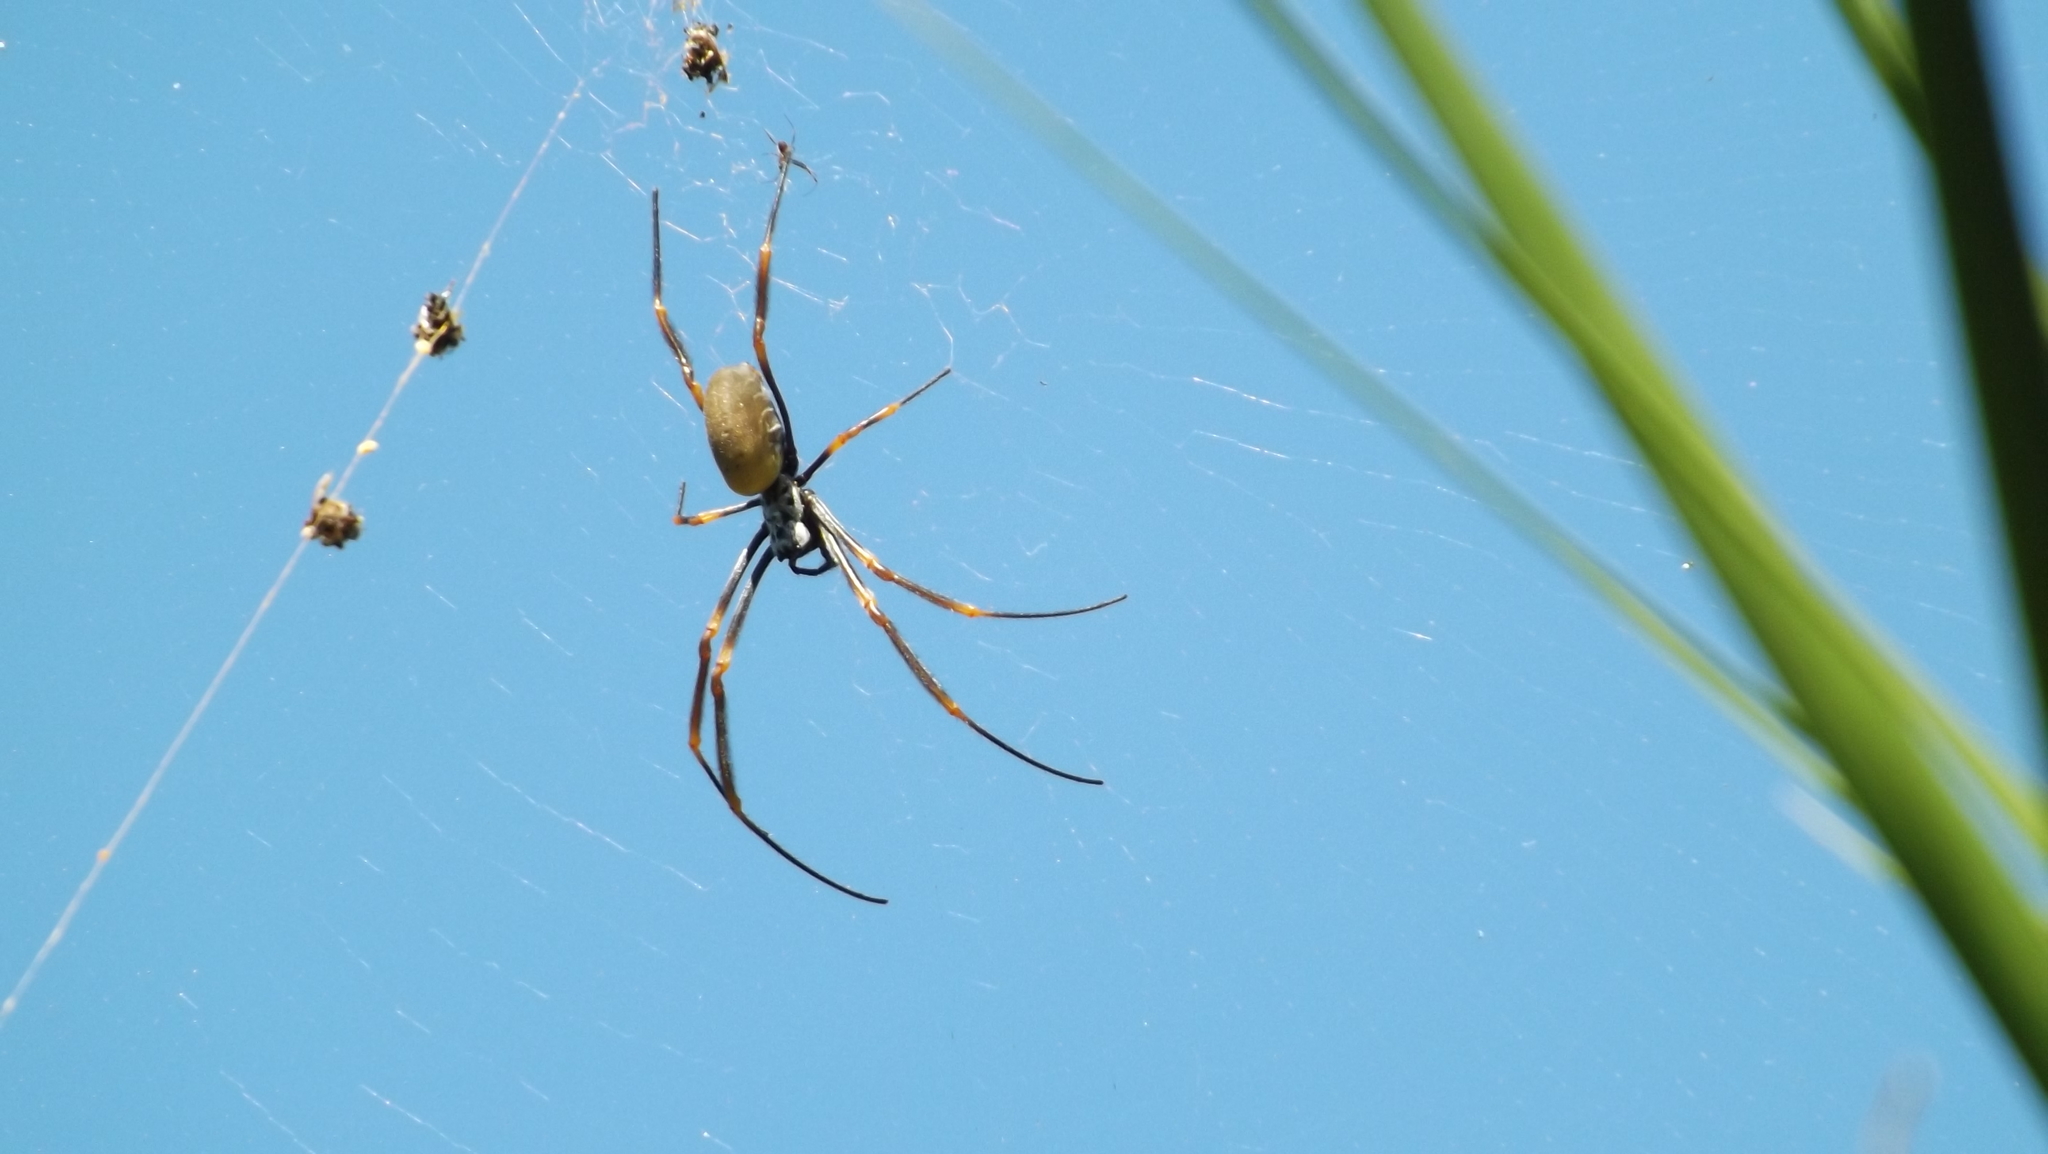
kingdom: Animalia
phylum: Arthropoda
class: Arachnida
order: Araneae
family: Araneidae
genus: Trichonephila
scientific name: Trichonephila plumipes
